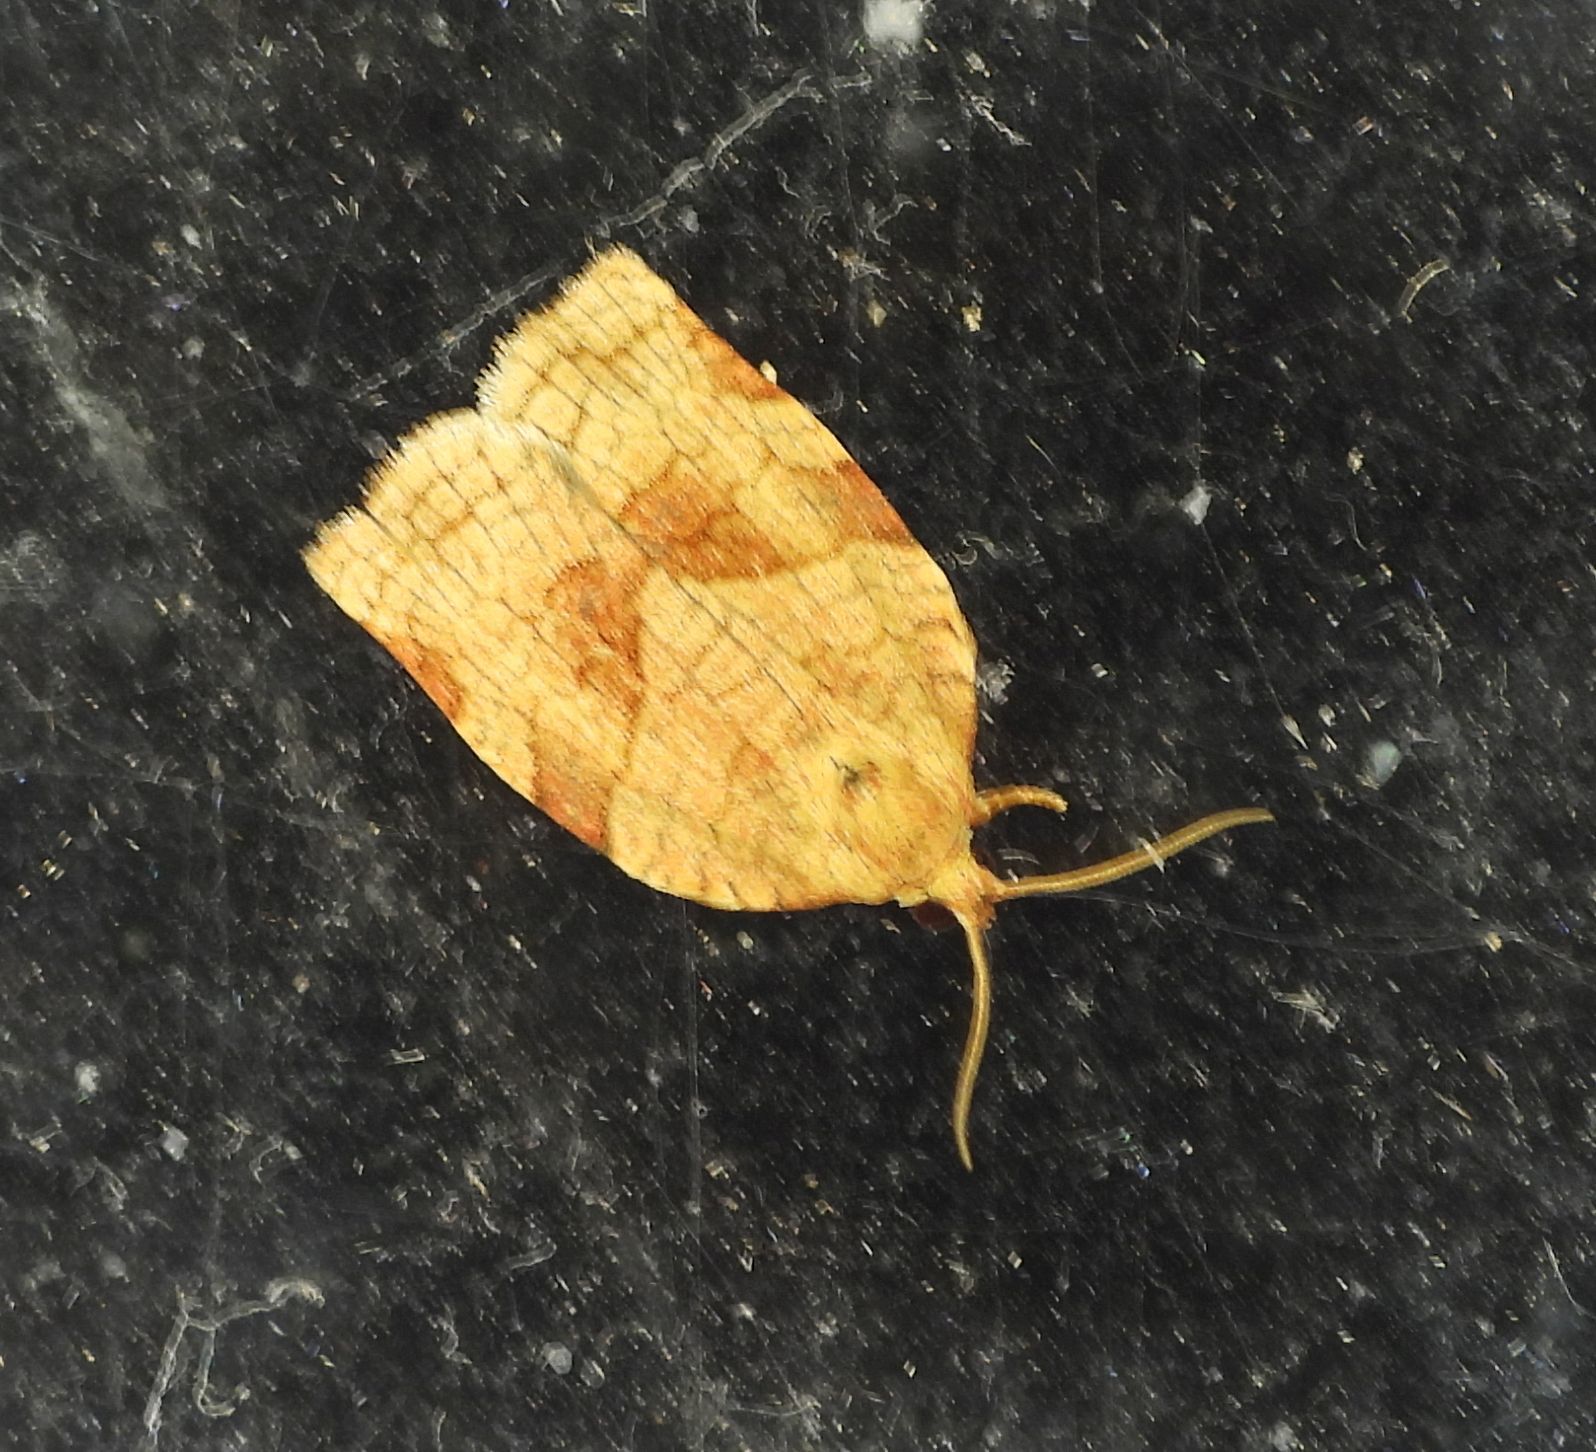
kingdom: Animalia
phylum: Arthropoda
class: Insecta
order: Lepidoptera
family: Tortricidae
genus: Choristoneura
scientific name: Choristoneura rosaceana
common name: Oblique-banded leafroller moth
